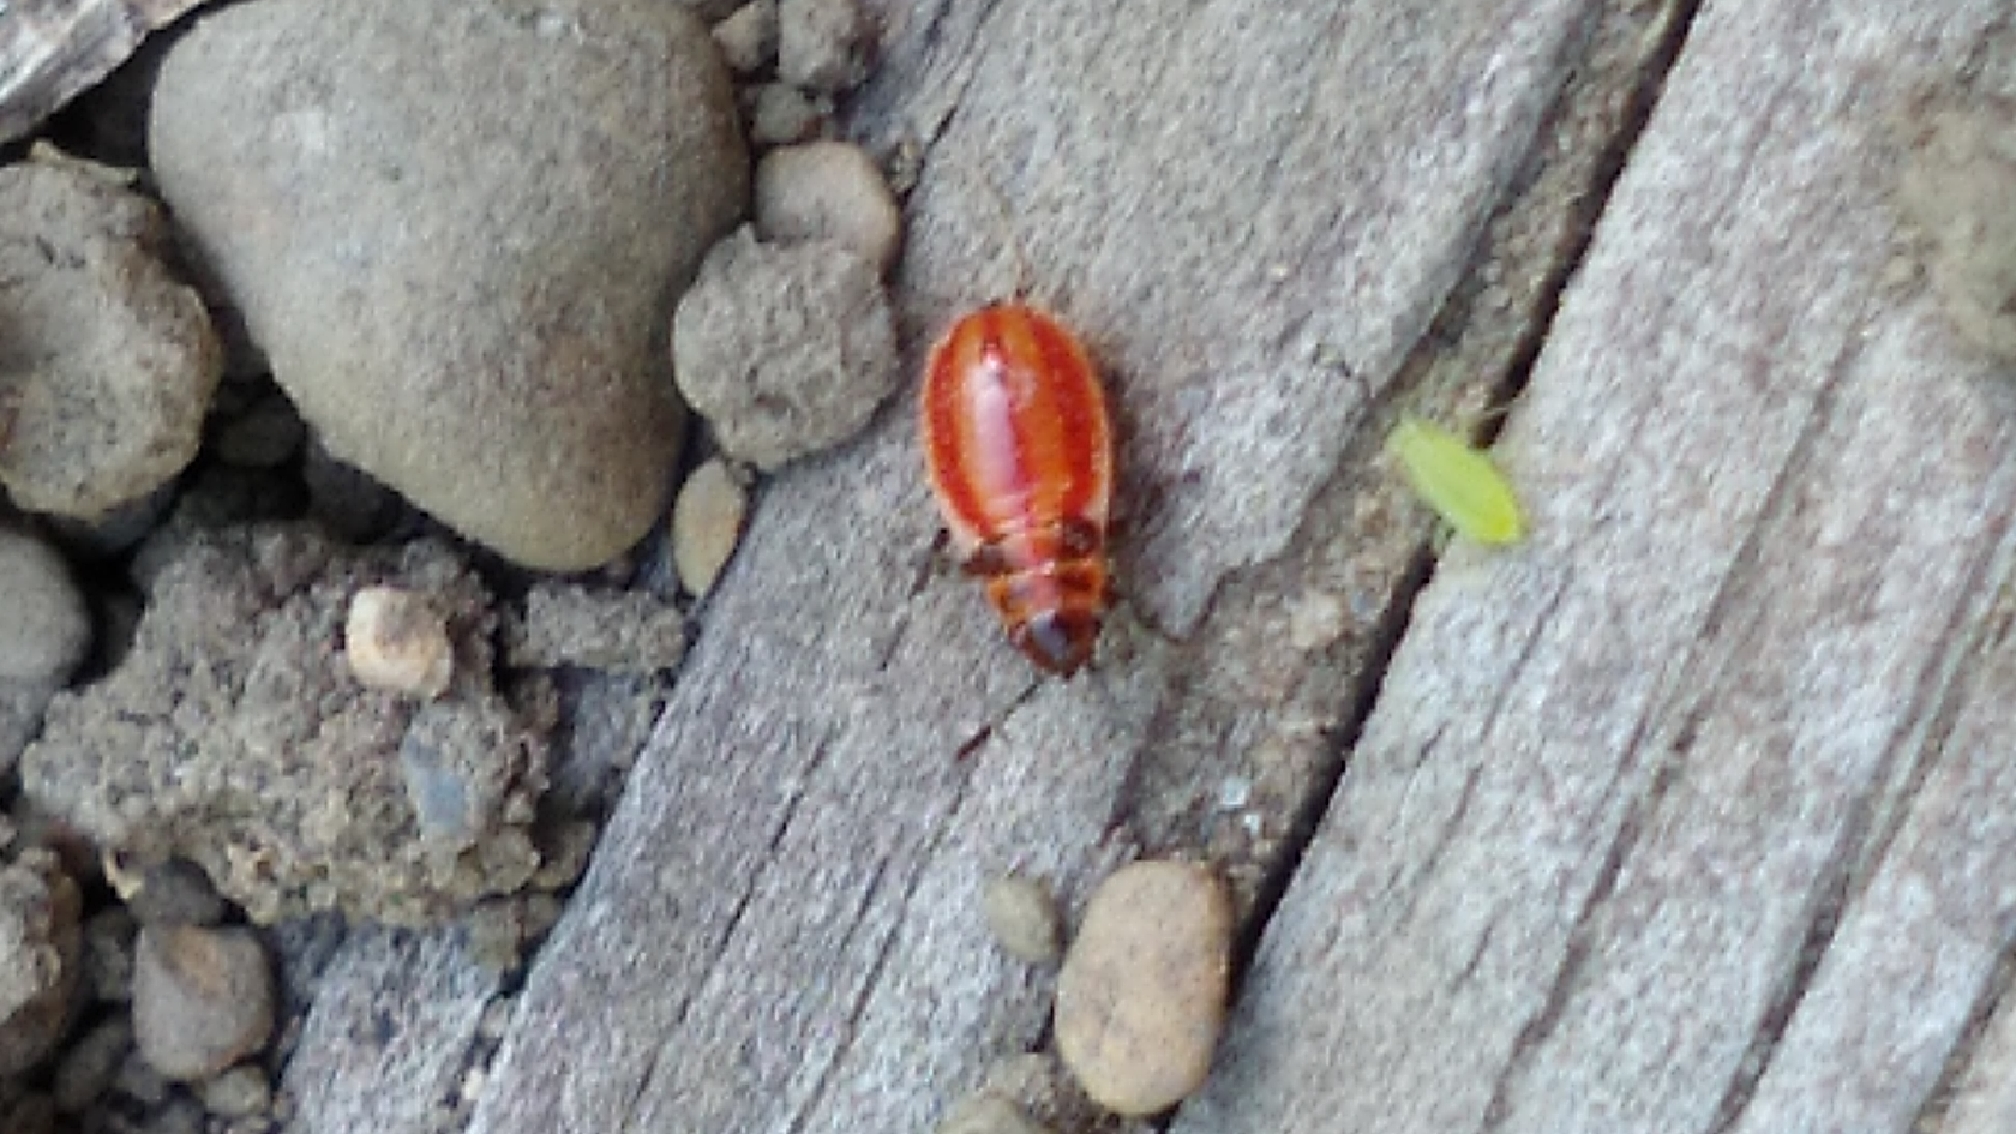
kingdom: Animalia
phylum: Arthropoda
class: Insecta
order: Hemiptera
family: Lygaeidae
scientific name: Lygaeidae
